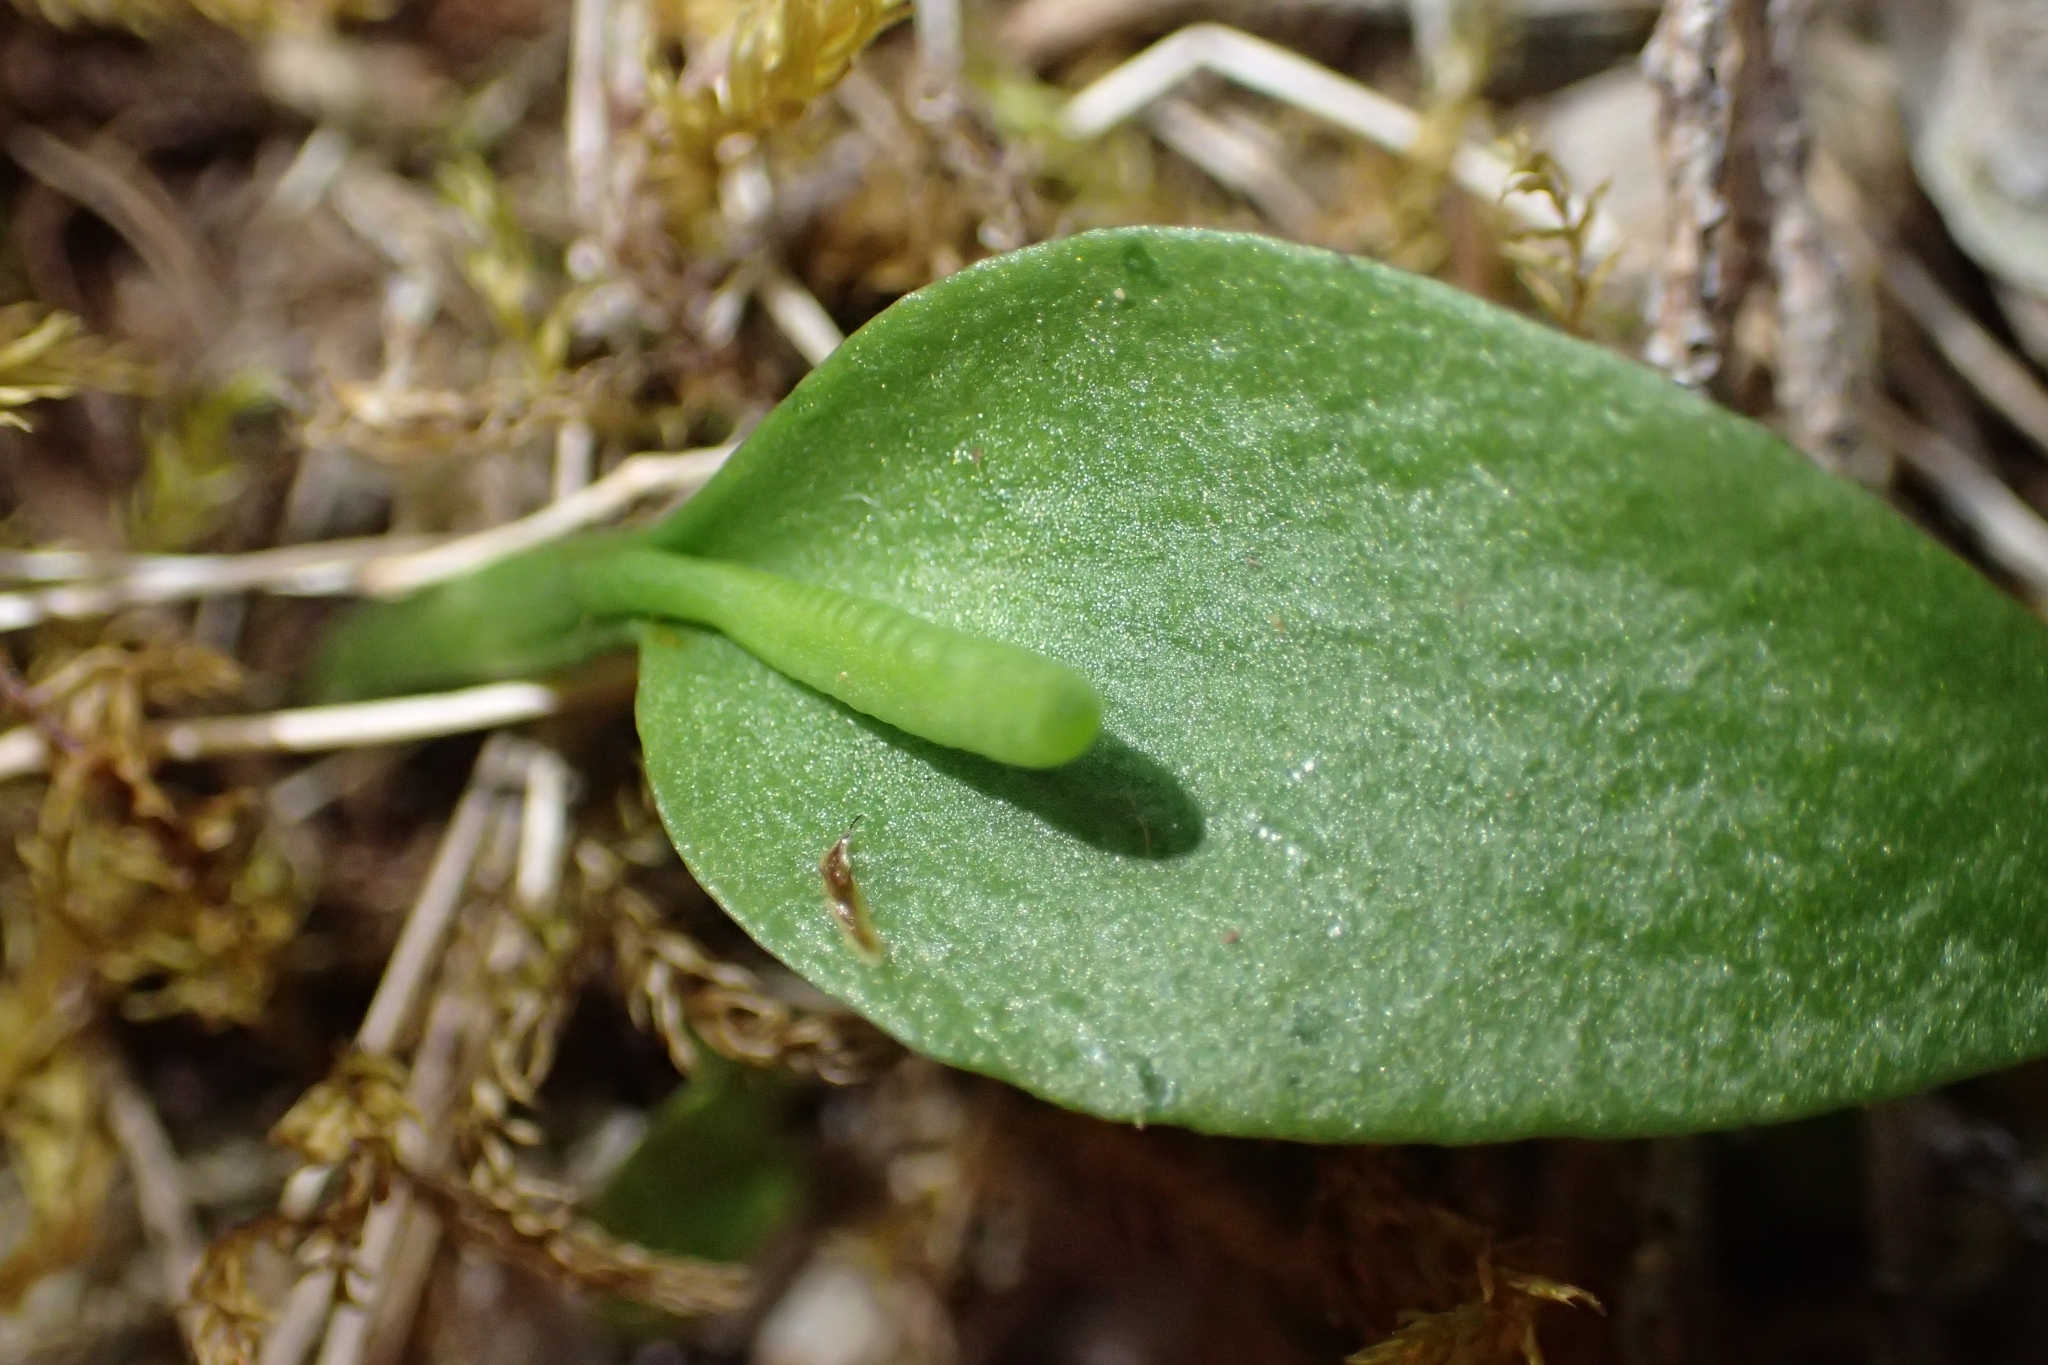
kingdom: Plantae
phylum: Tracheophyta
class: Polypodiopsida
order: Ophioglossales
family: Ophioglossaceae
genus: Ophioglossum
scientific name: Ophioglossum coriaceum
